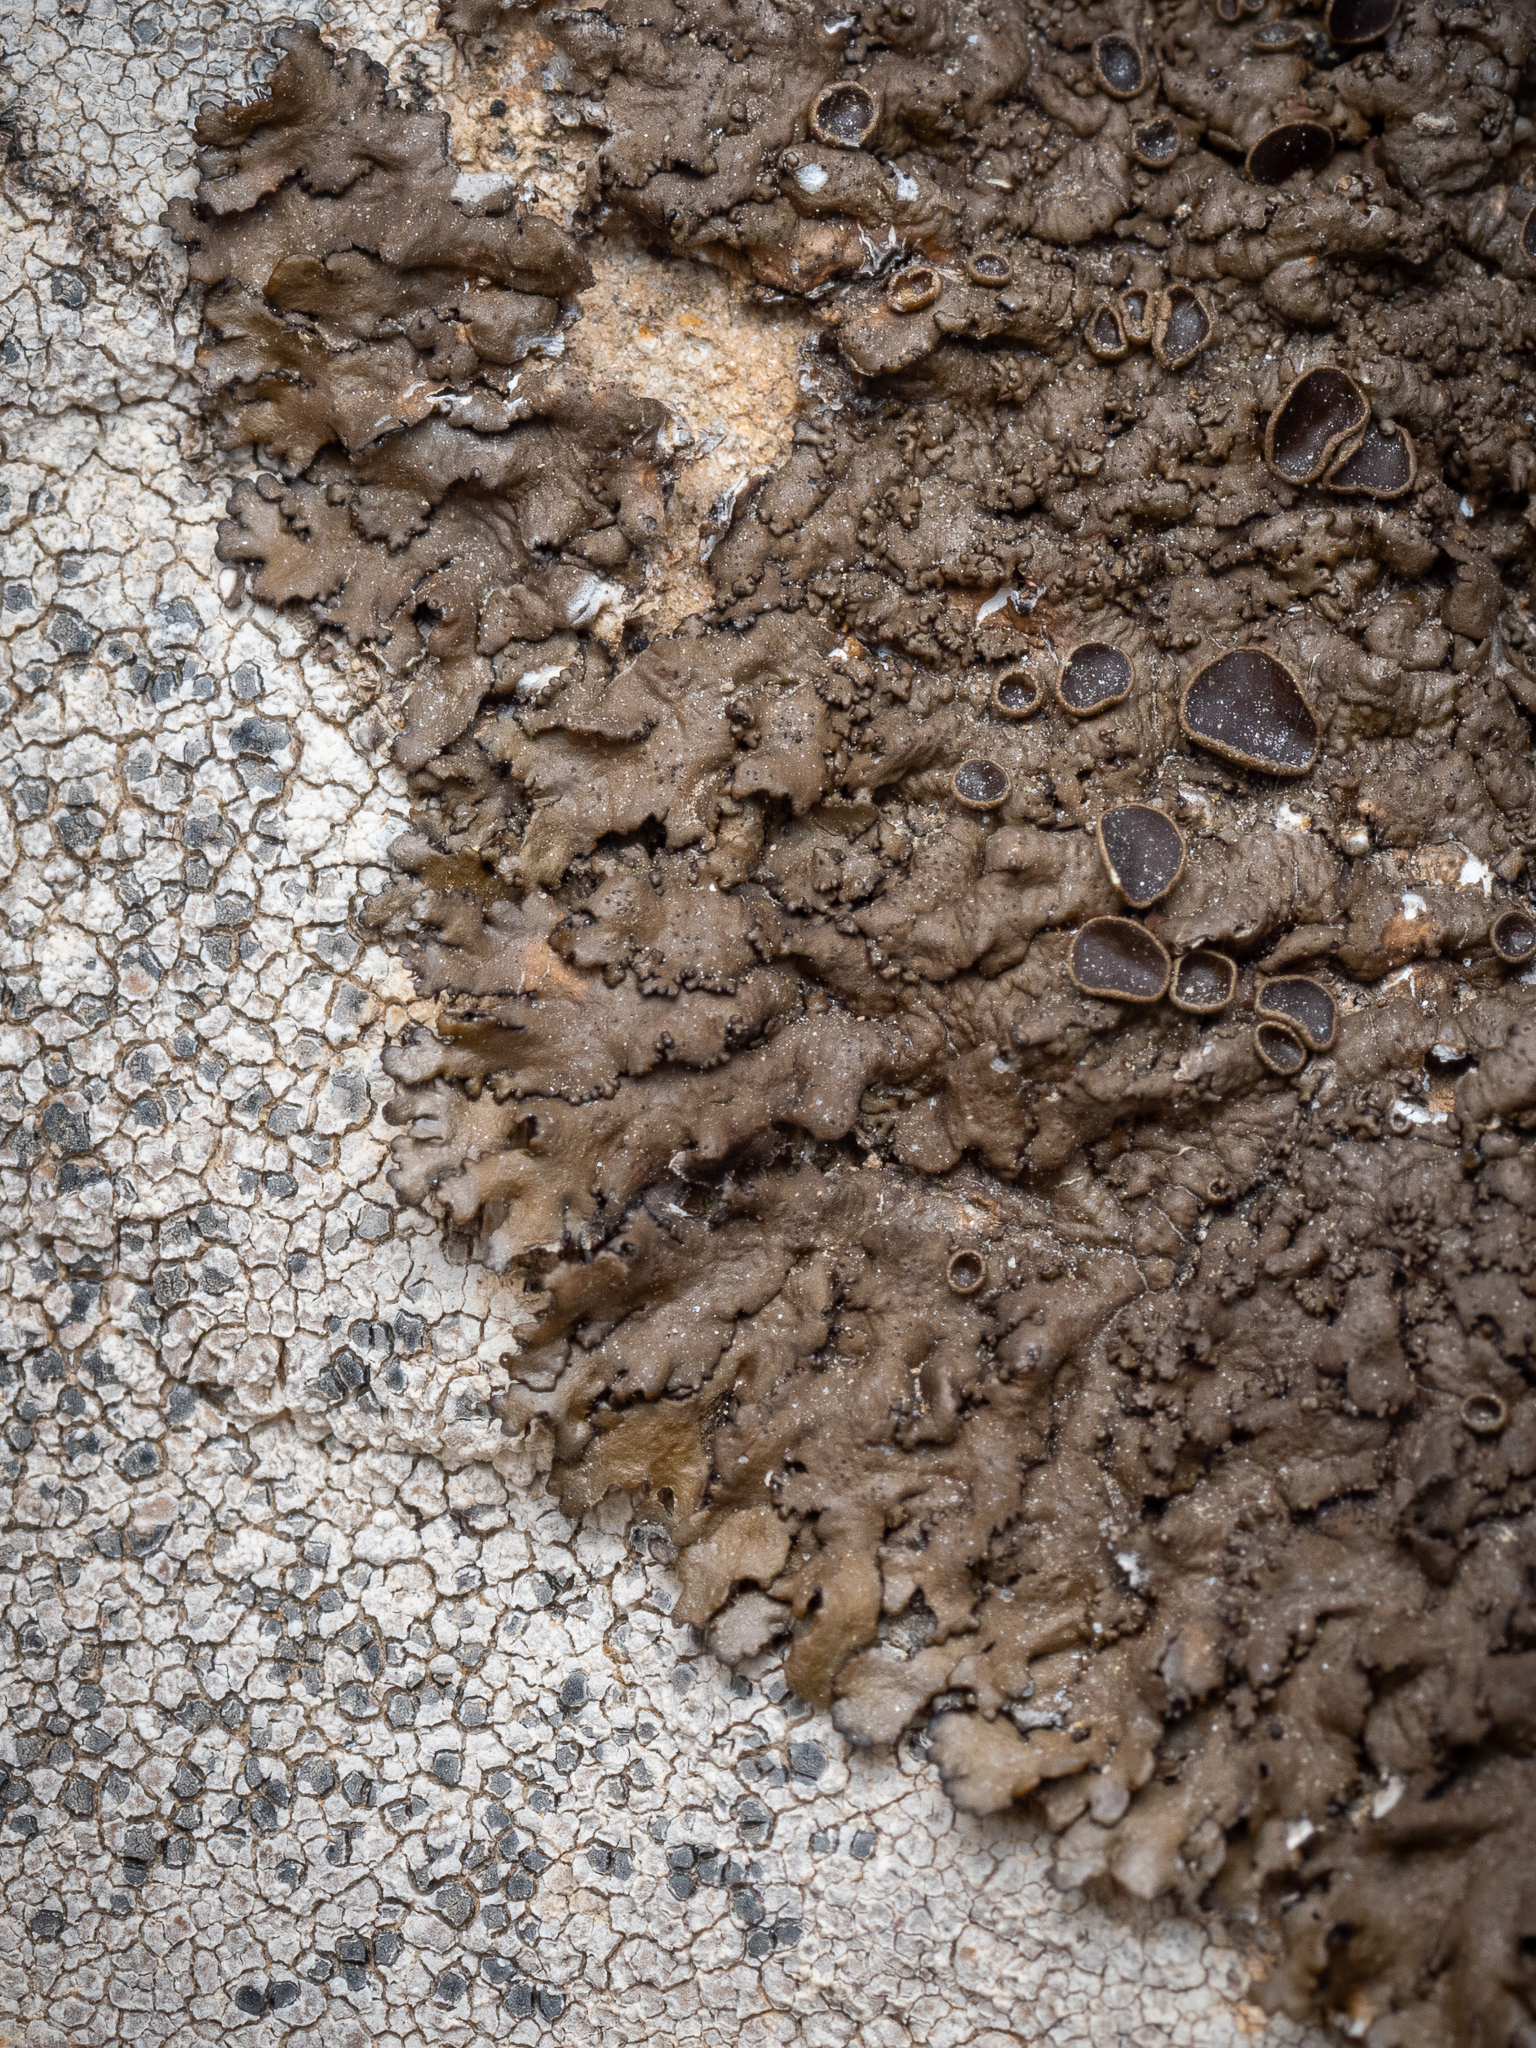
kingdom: Fungi
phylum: Ascomycota
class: Lecanoromycetes
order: Lecanorales
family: Parmeliaceae
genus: Xanthoparmelia
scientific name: Xanthoparmelia pulla
